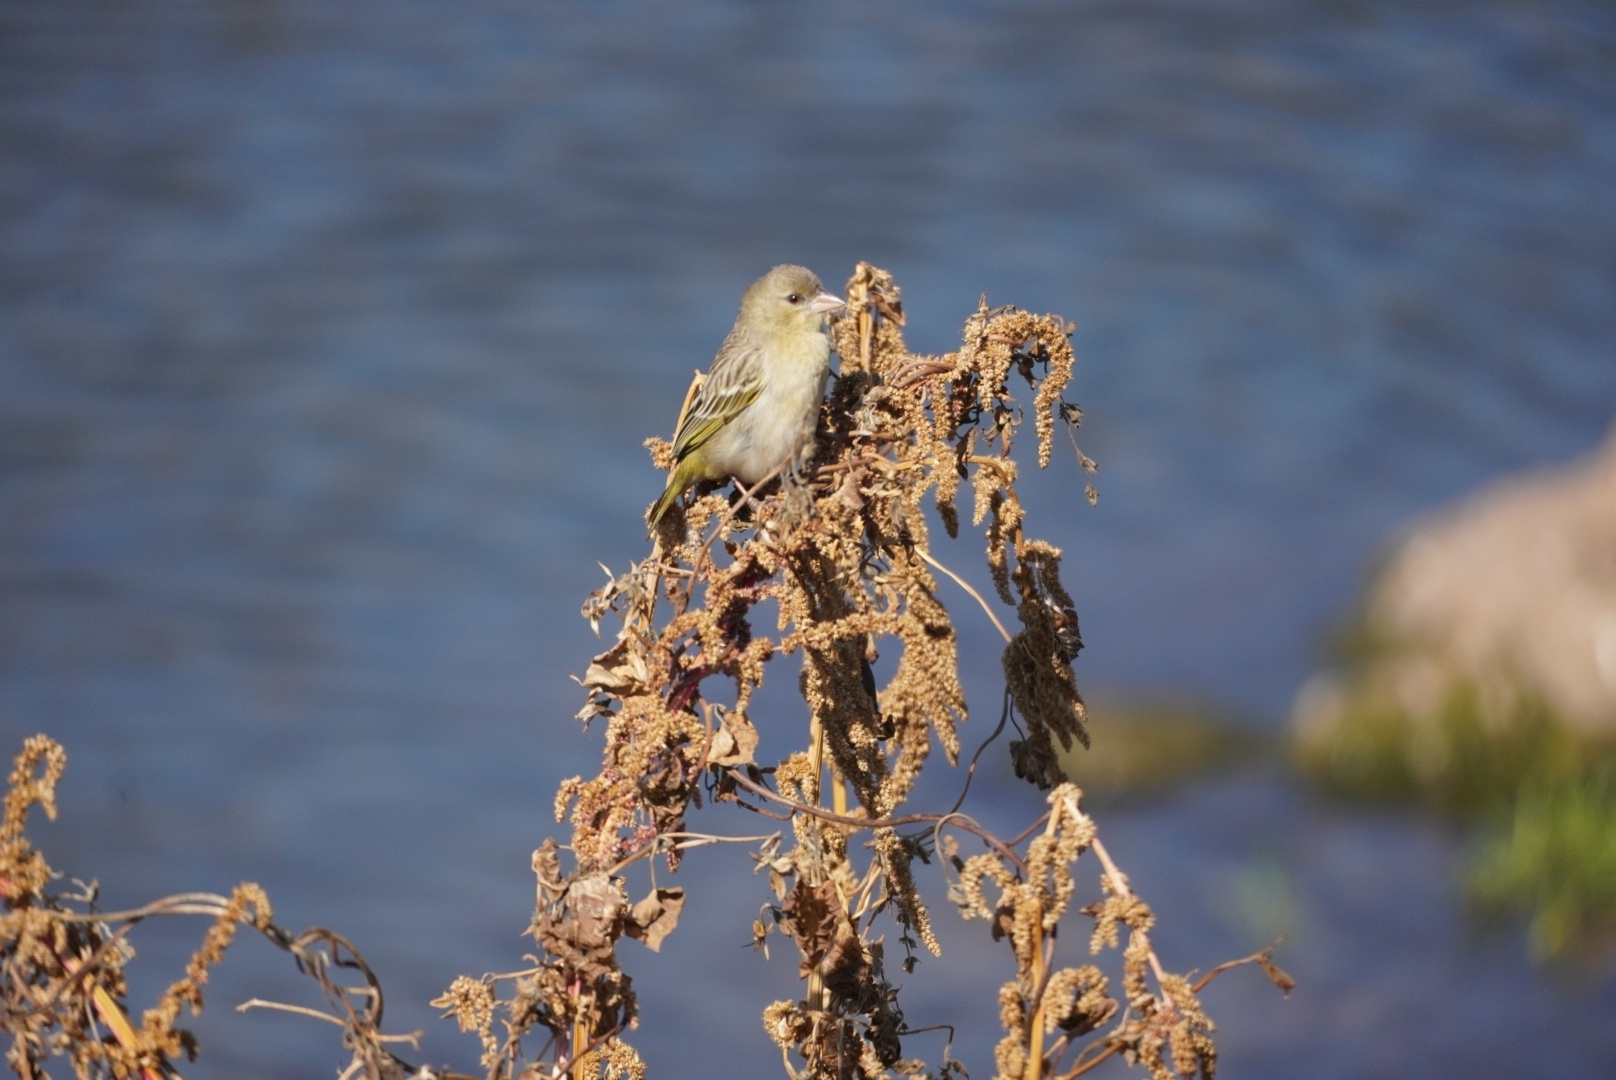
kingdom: Animalia
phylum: Chordata
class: Aves
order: Passeriformes
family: Ploceidae
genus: Ploceus
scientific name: Ploceus velatus
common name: Southern masked weaver
